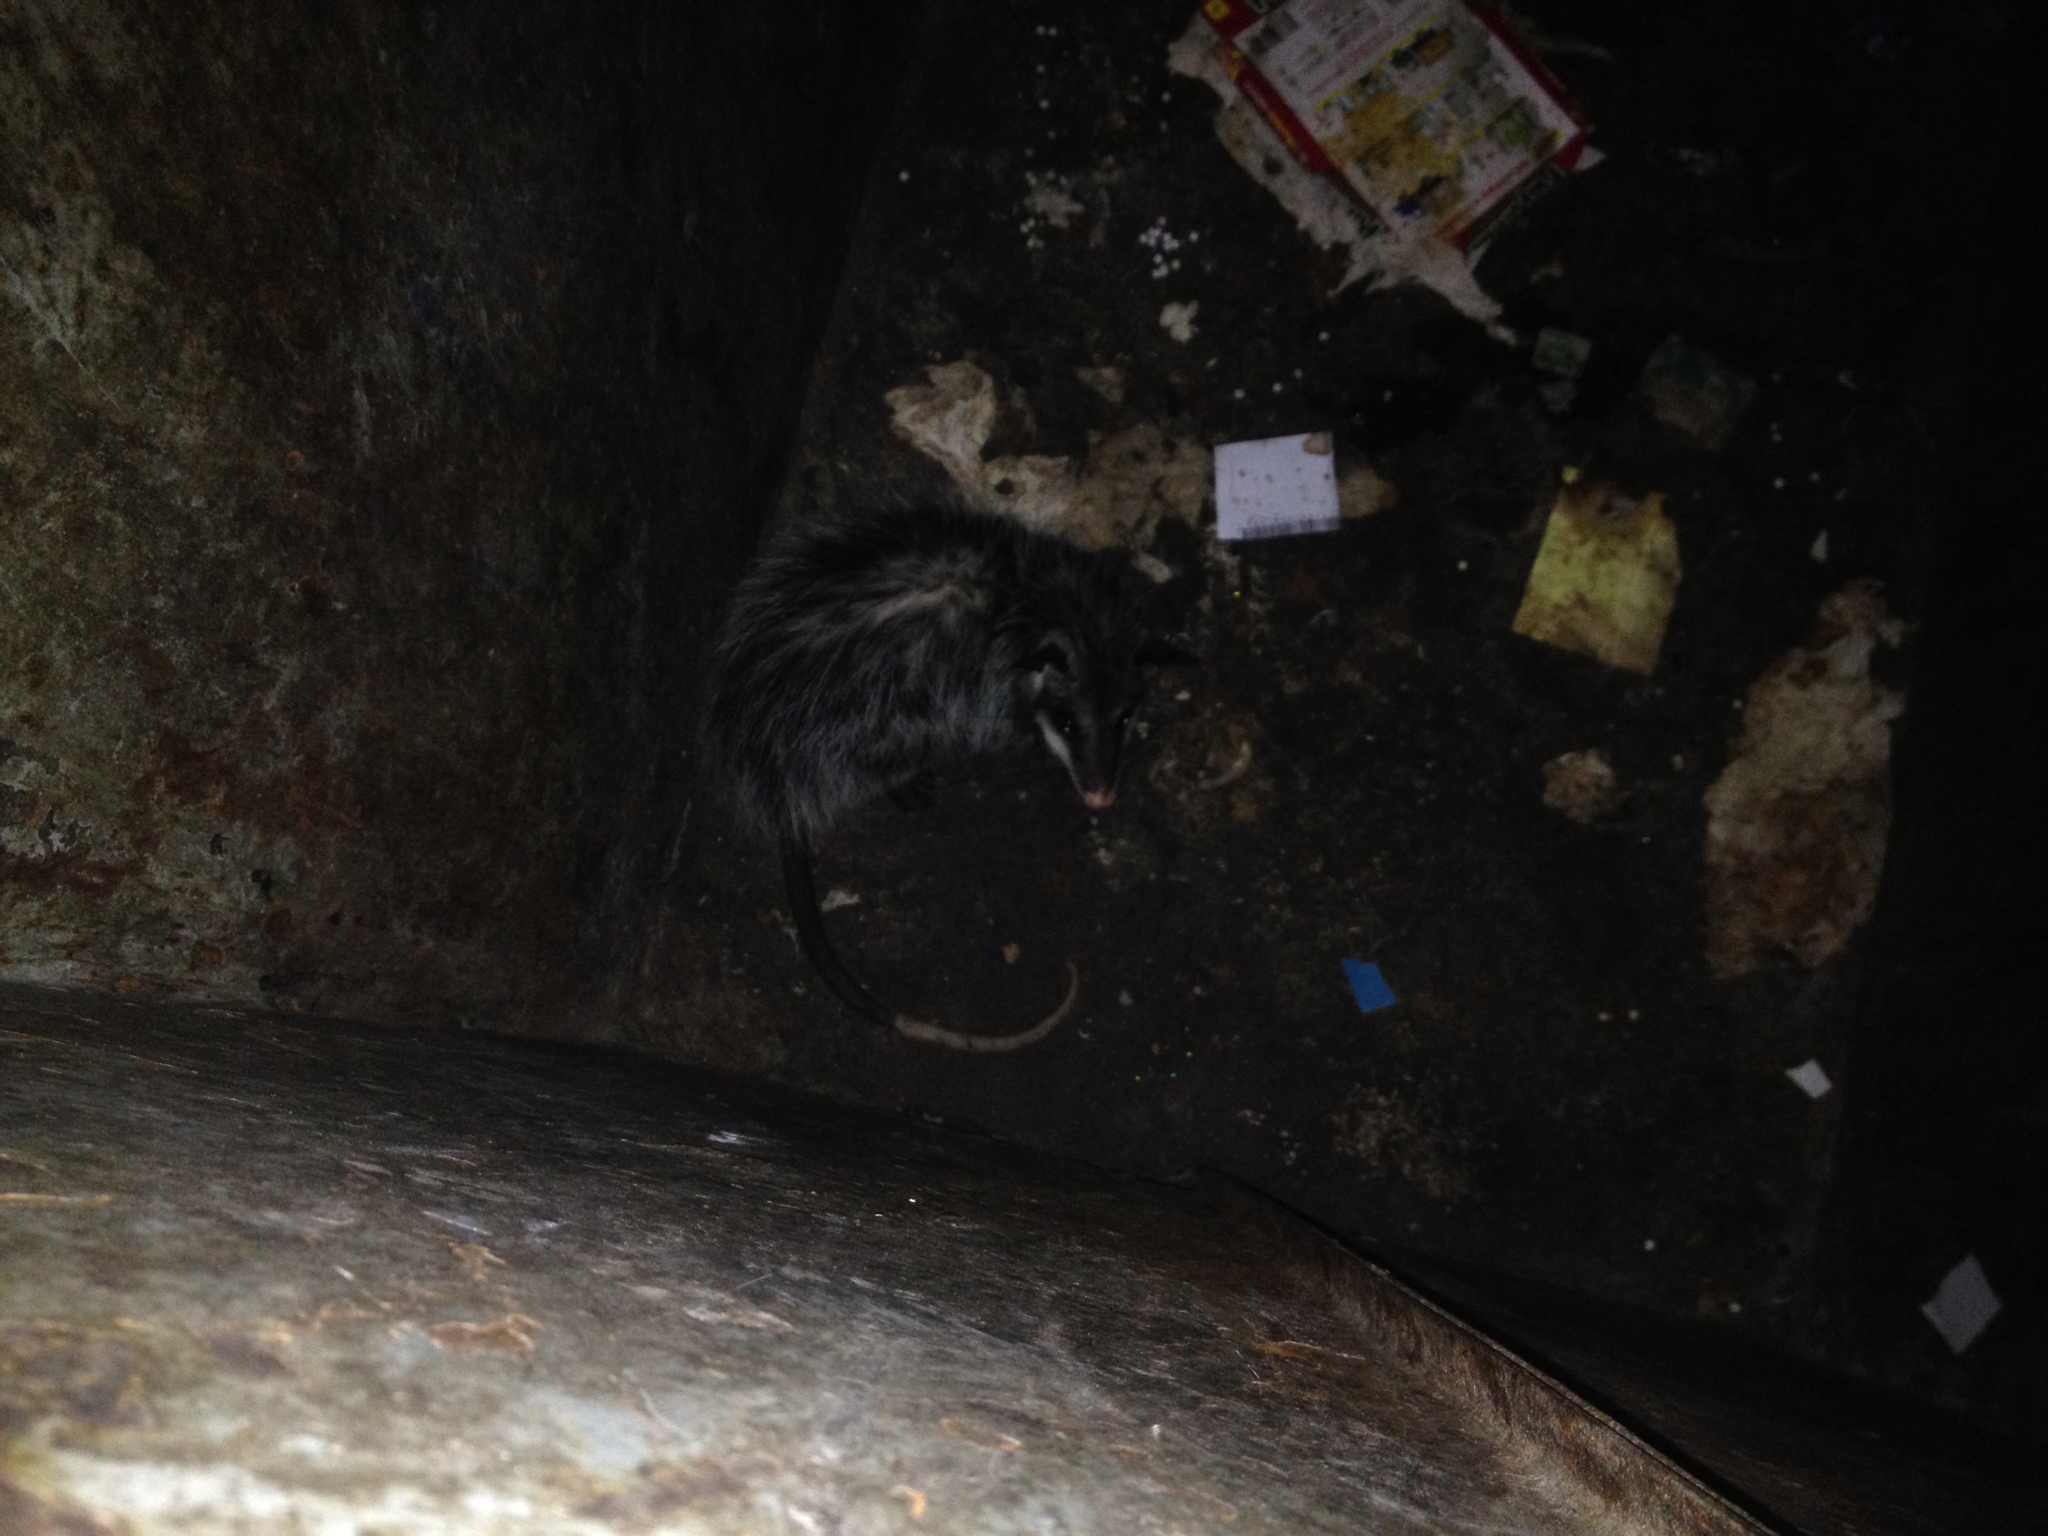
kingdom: Animalia
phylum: Chordata
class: Mammalia
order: Didelphimorphia
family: Didelphidae
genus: Didelphis
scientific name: Didelphis virginiana
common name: Virginia opossum
